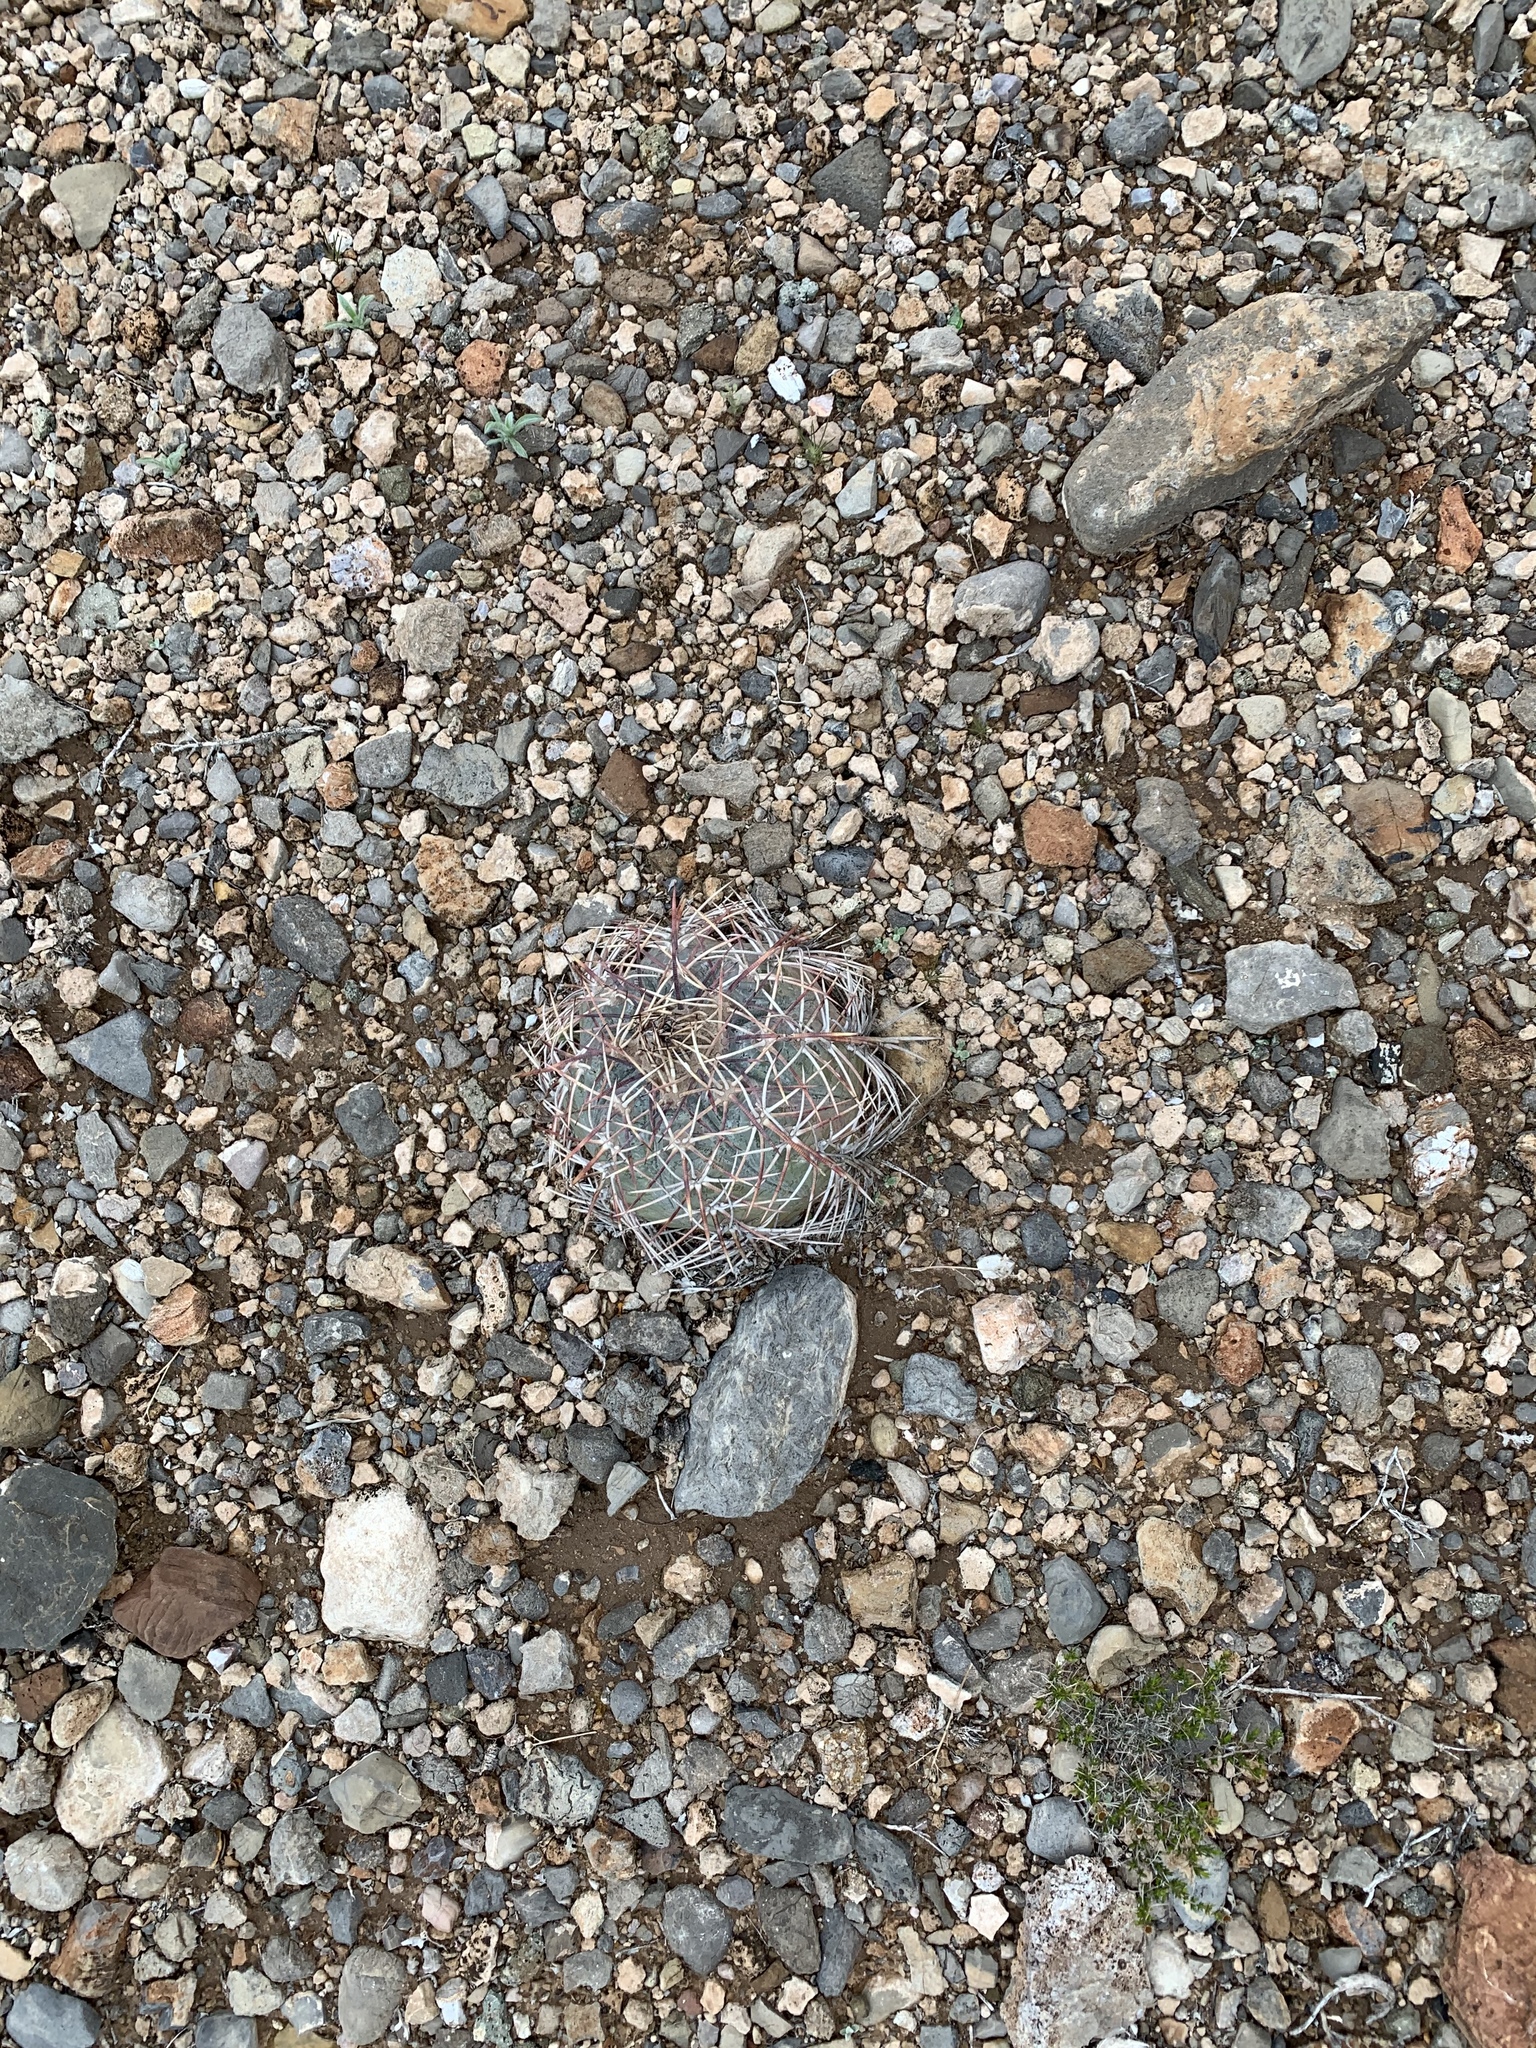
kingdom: Plantae
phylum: Tracheophyta
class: Magnoliopsida
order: Caryophyllales
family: Cactaceae
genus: Echinocactus
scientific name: Echinocactus horizonthalonius
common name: Devilshead
